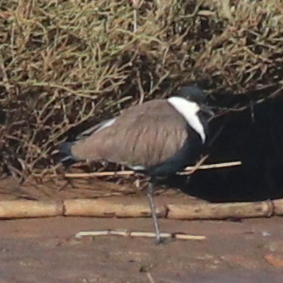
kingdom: Animalia
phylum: Chordata
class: Aves
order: Charadriiformes
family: Charadriidae
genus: Vanellus
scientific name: Vanellus spinosus
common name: Spur-winged lapwing
